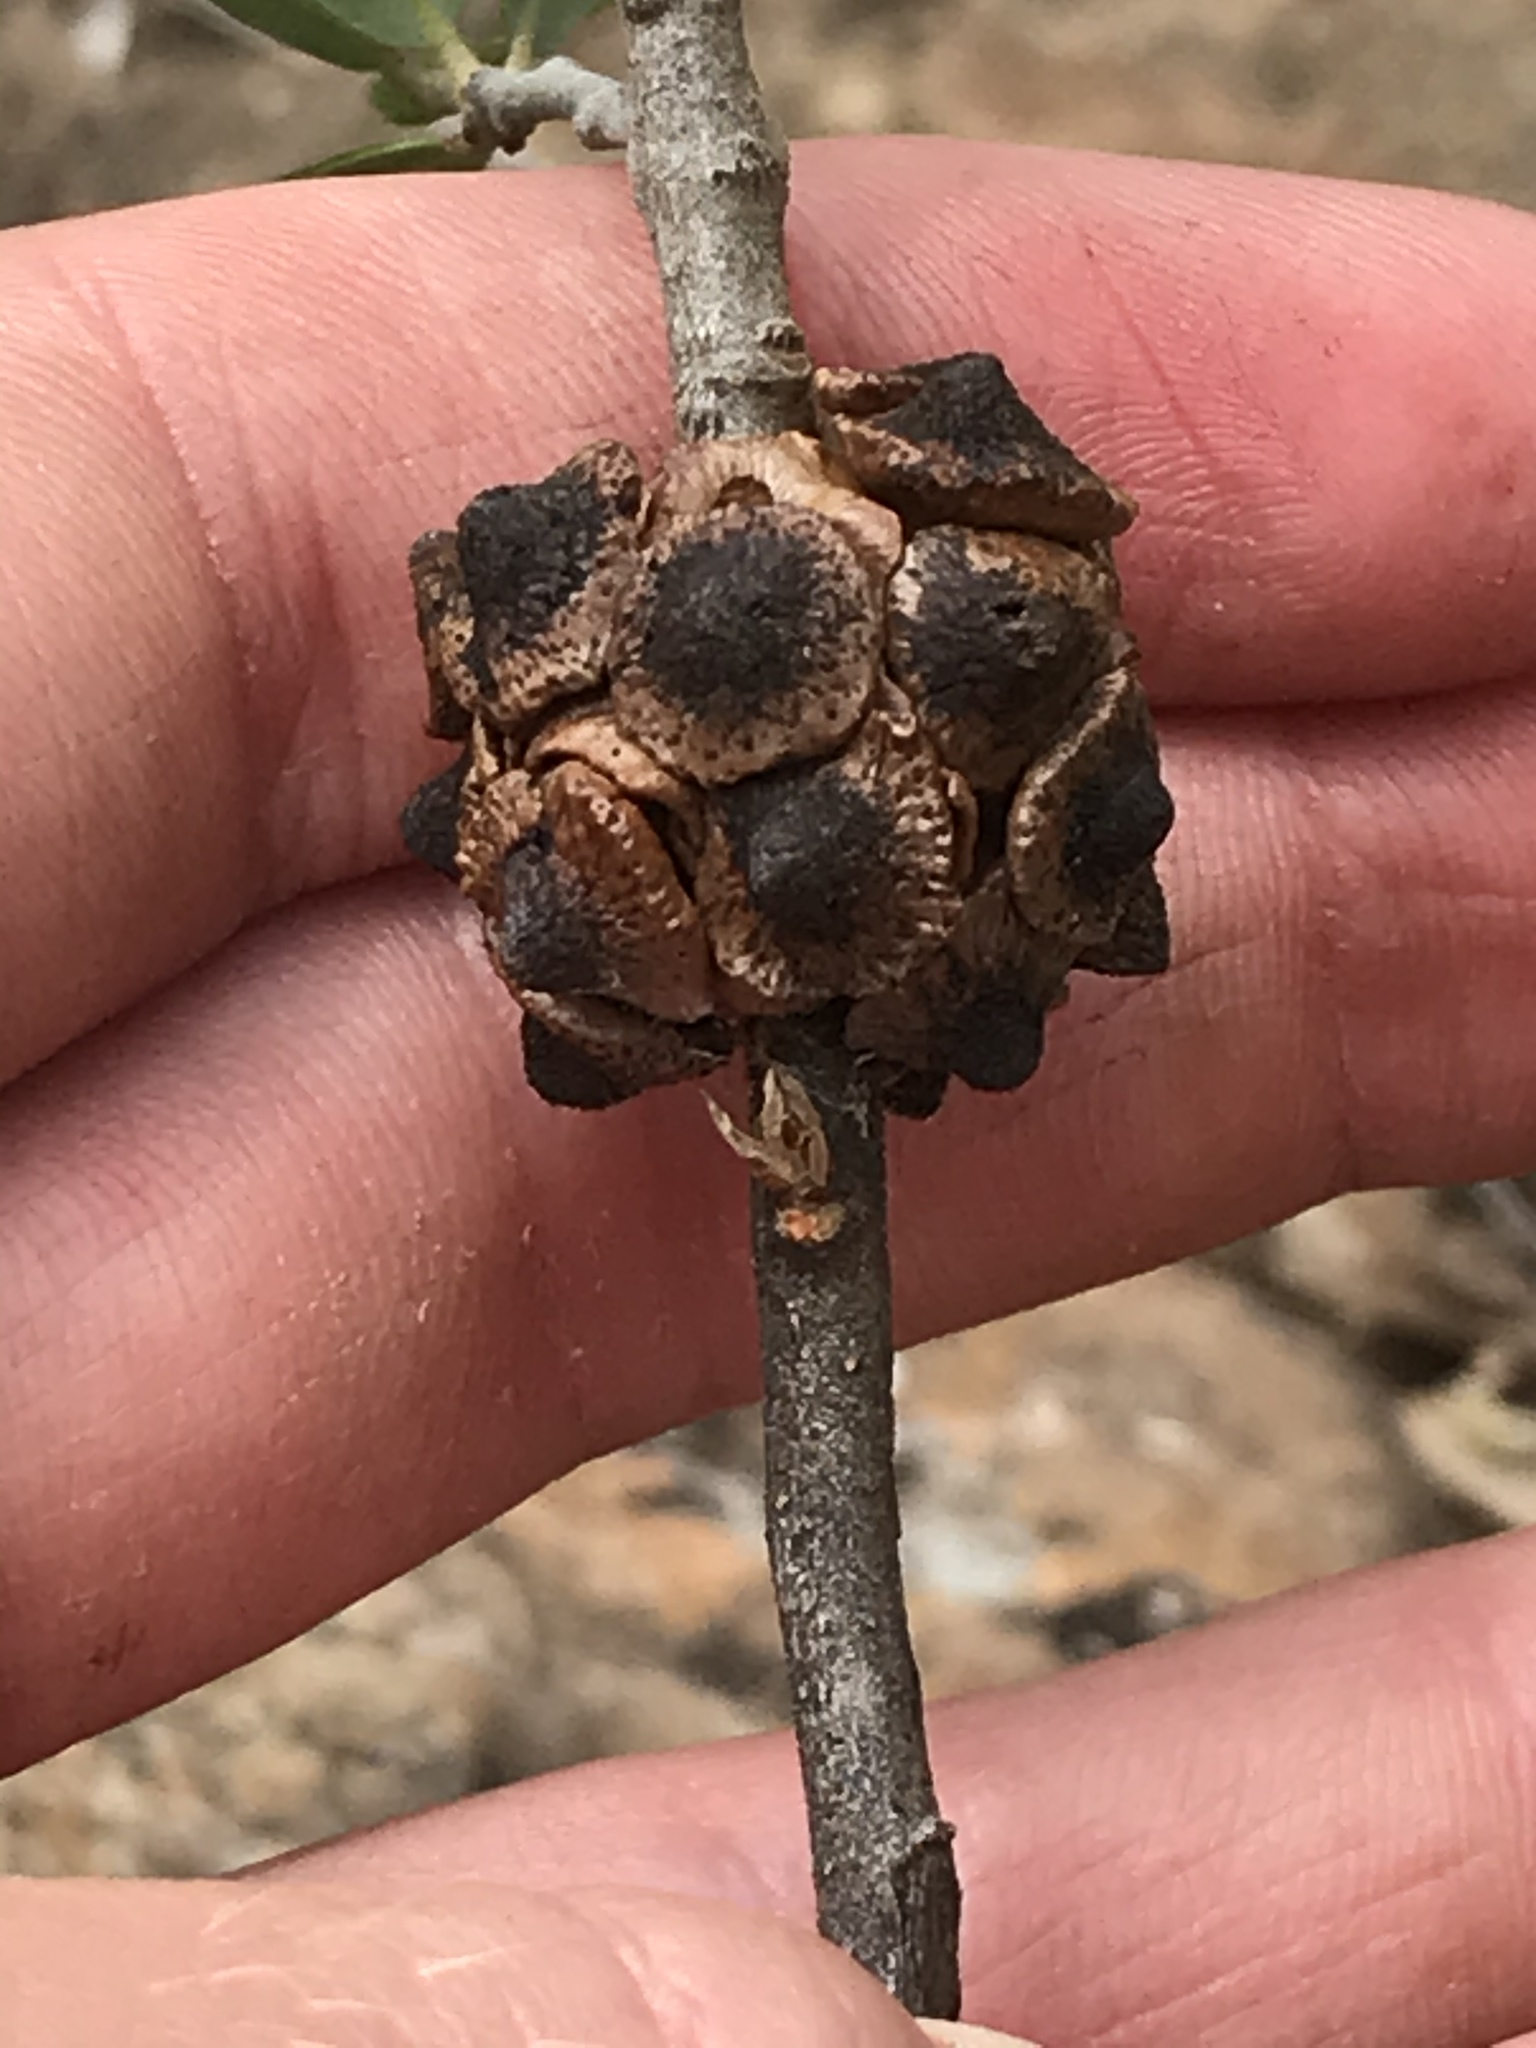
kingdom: Animalia
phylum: Arthropoda
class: Insecta
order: Hymenoptera
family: Cynipidae
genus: Disholcaspis
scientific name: Disholcaspis
